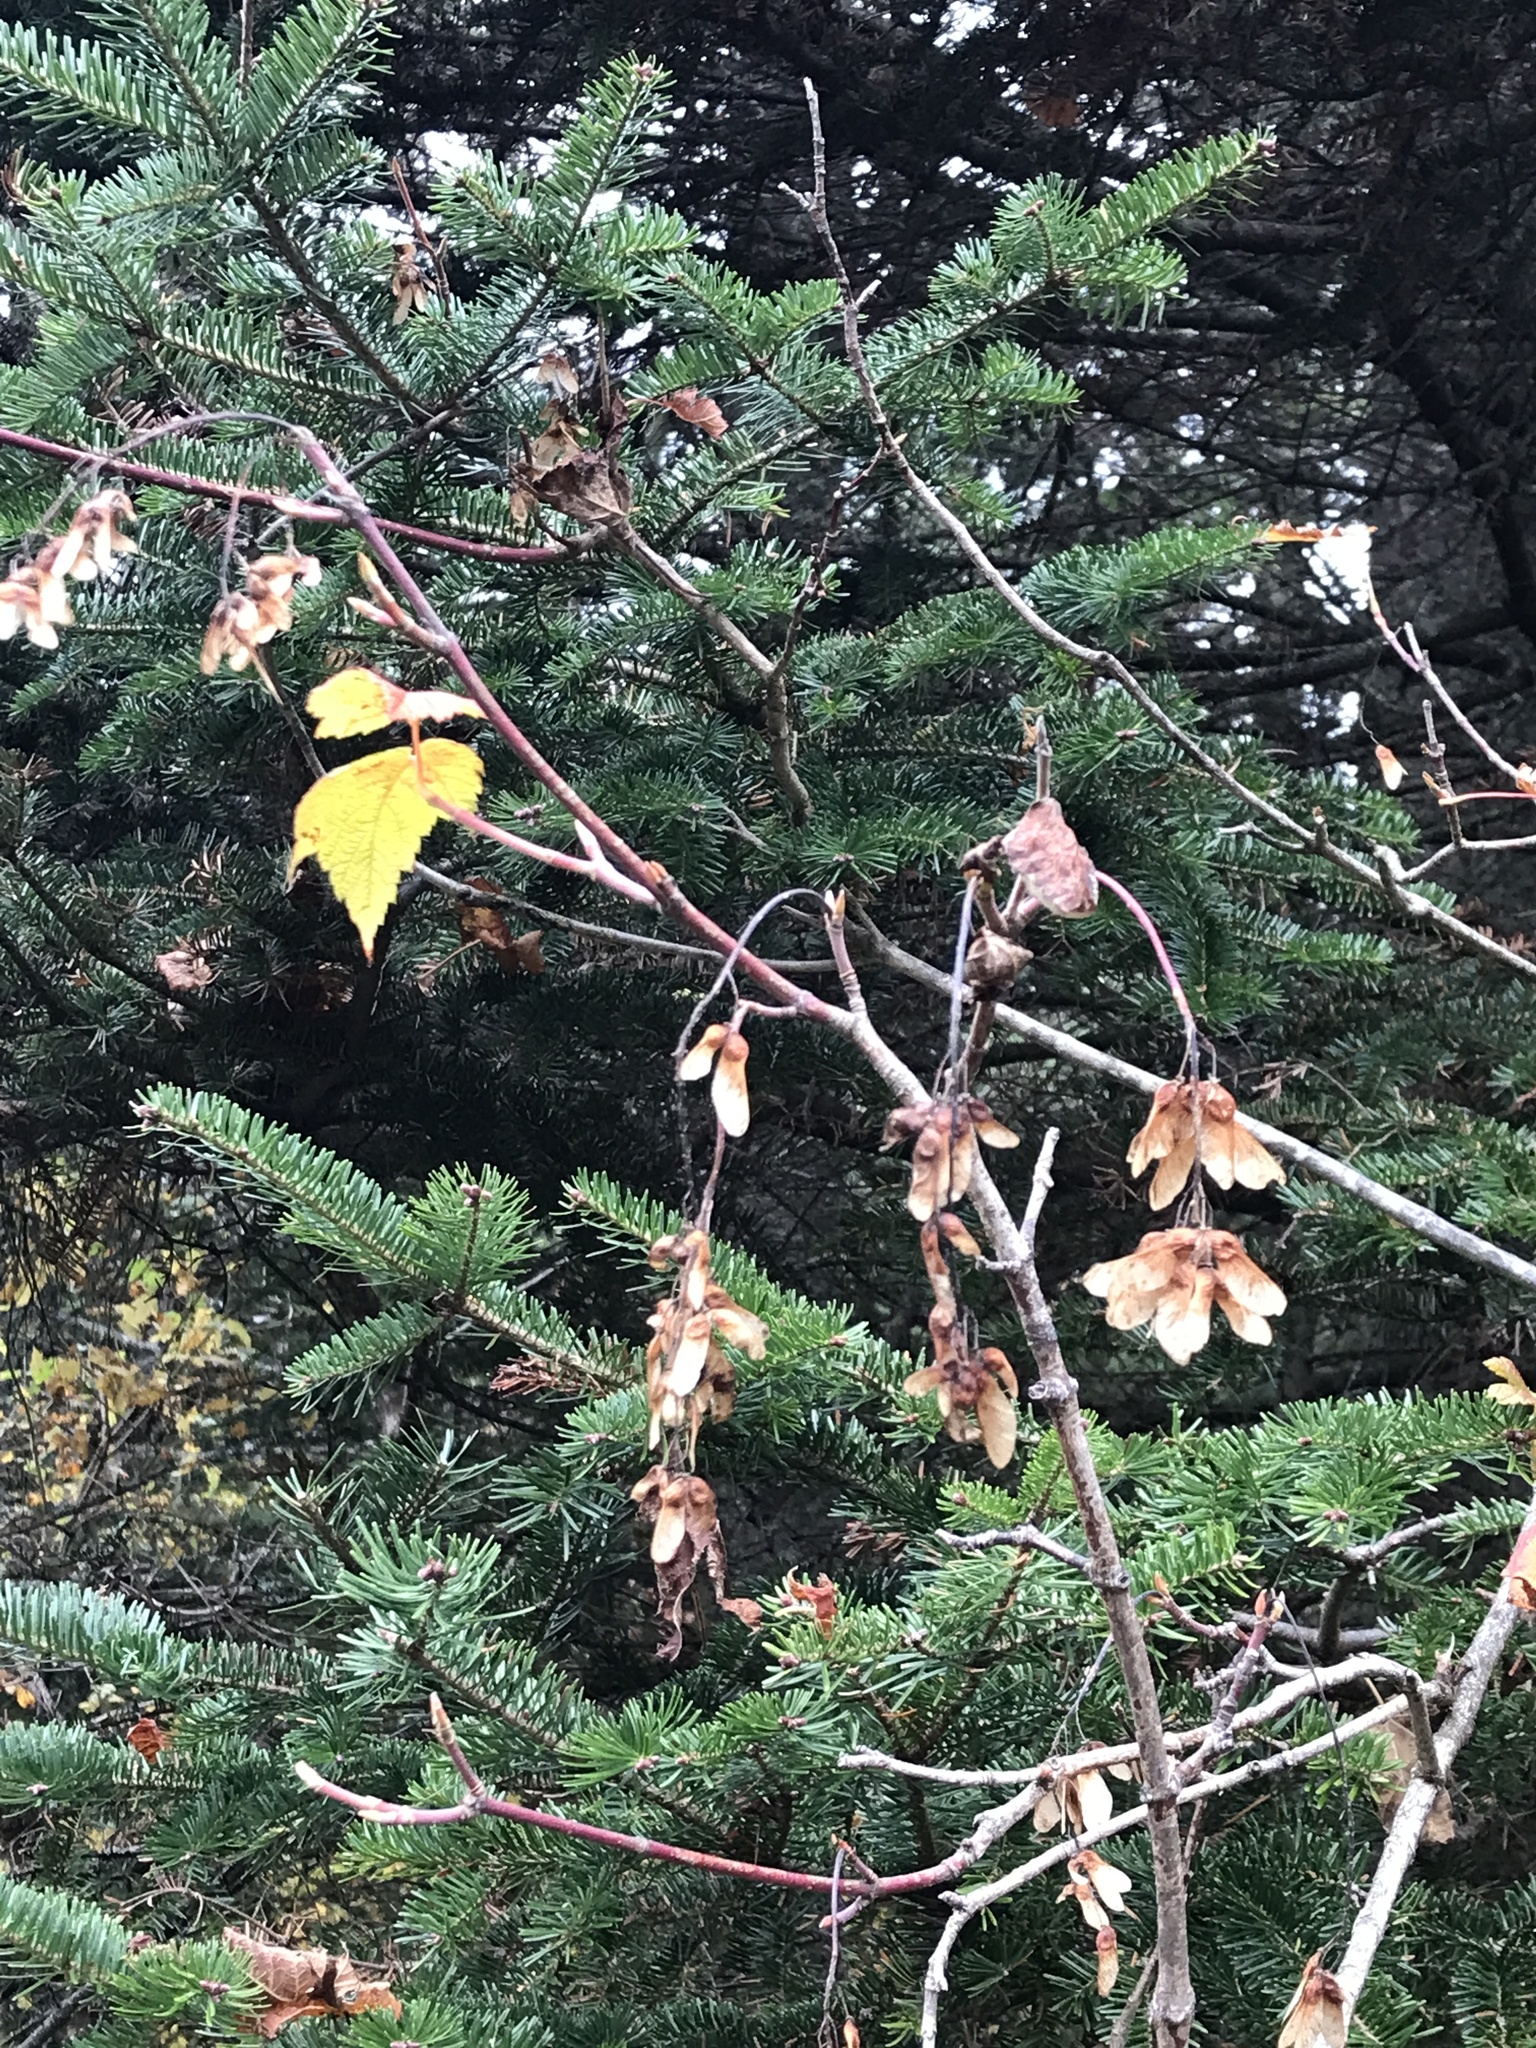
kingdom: Plantae
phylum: Tracheophyta
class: Magnoliopsida
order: Sapindales
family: Sapindaceae
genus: Acer
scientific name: Acer spicatum
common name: Mountain maple
